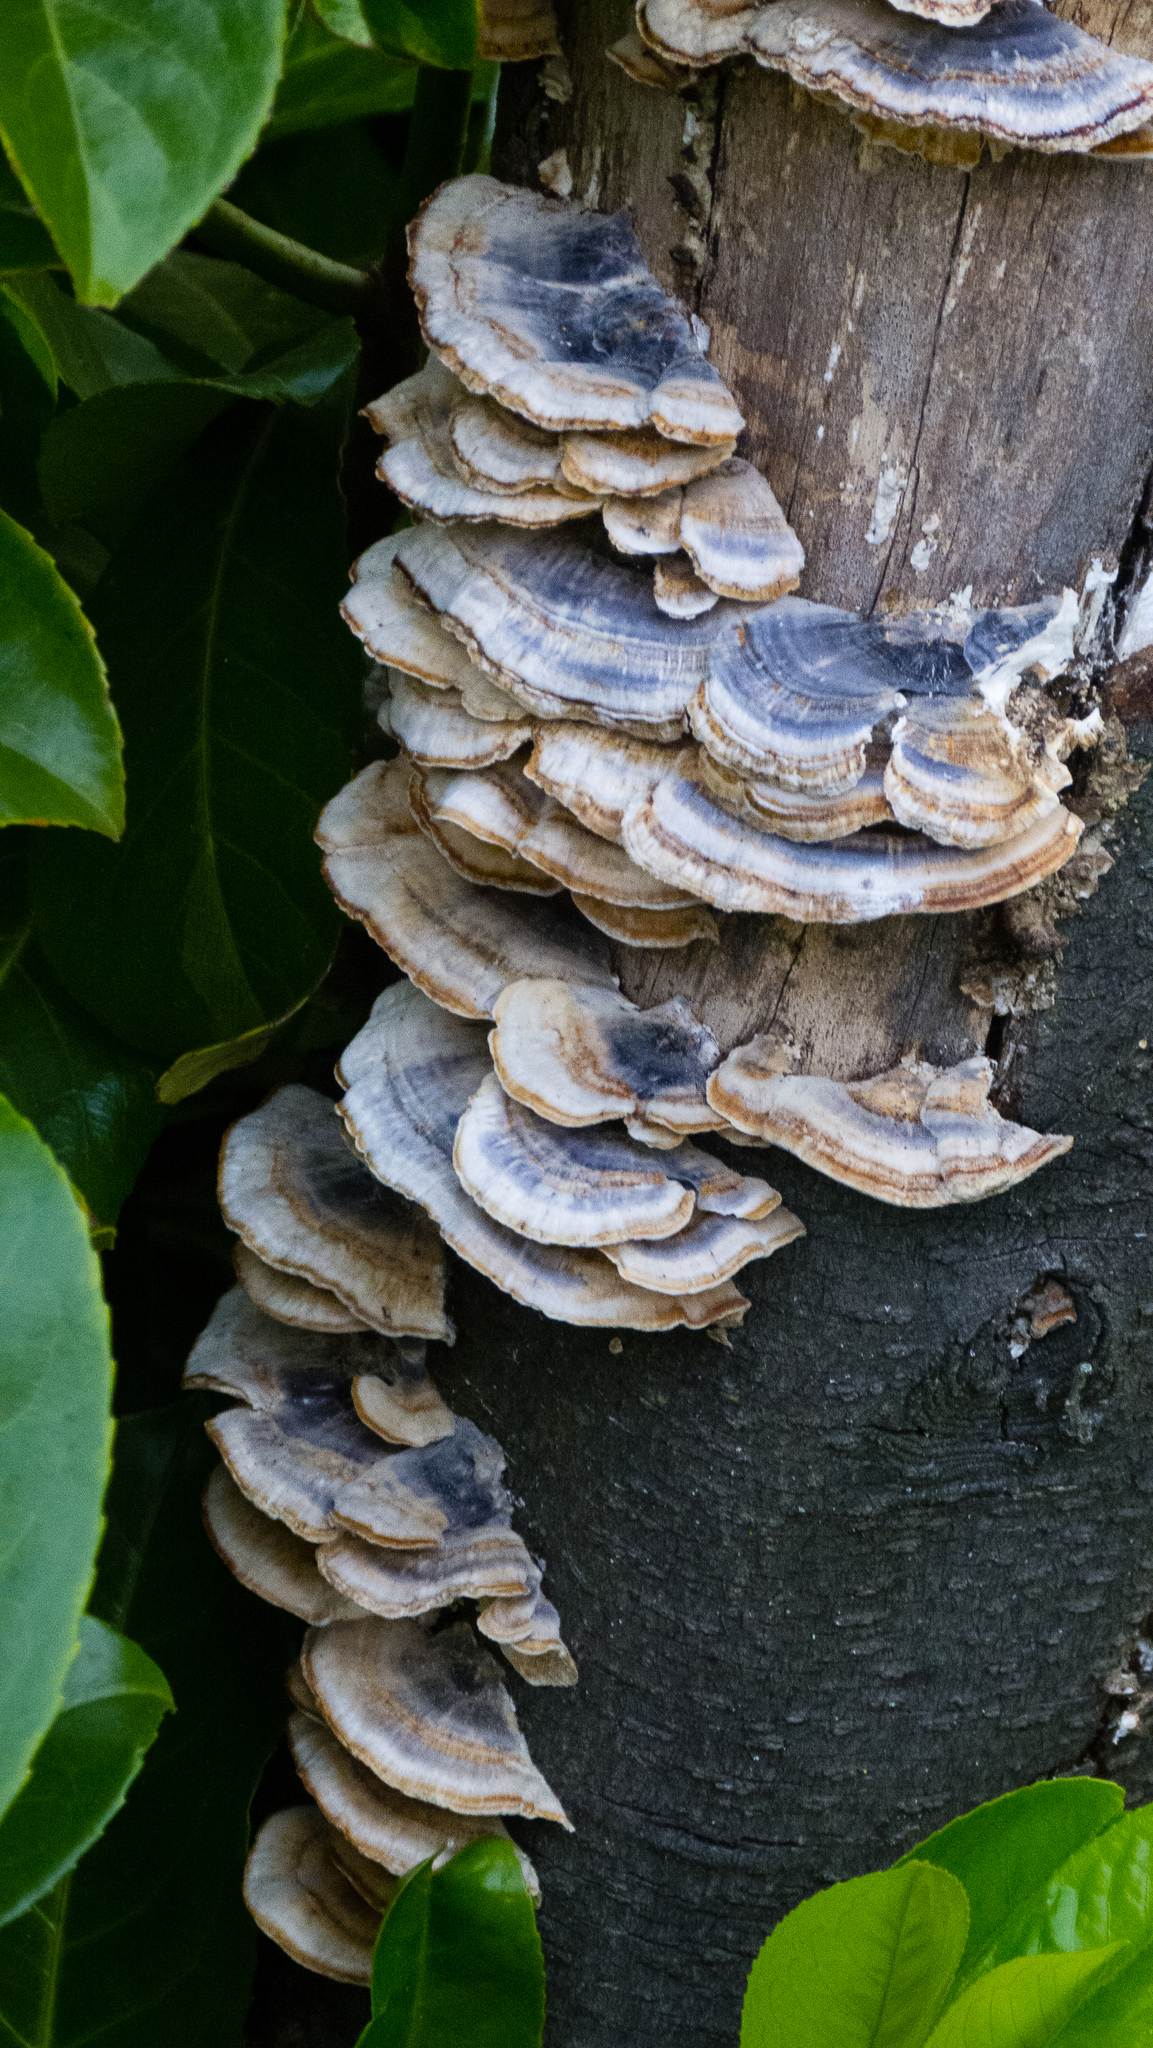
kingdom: Fungi
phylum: Basidiomycota
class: Agaricomycetes
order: Polyporales
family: Polyporaceae
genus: Trametes
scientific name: Trametes versicolor
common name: Turkeytail
